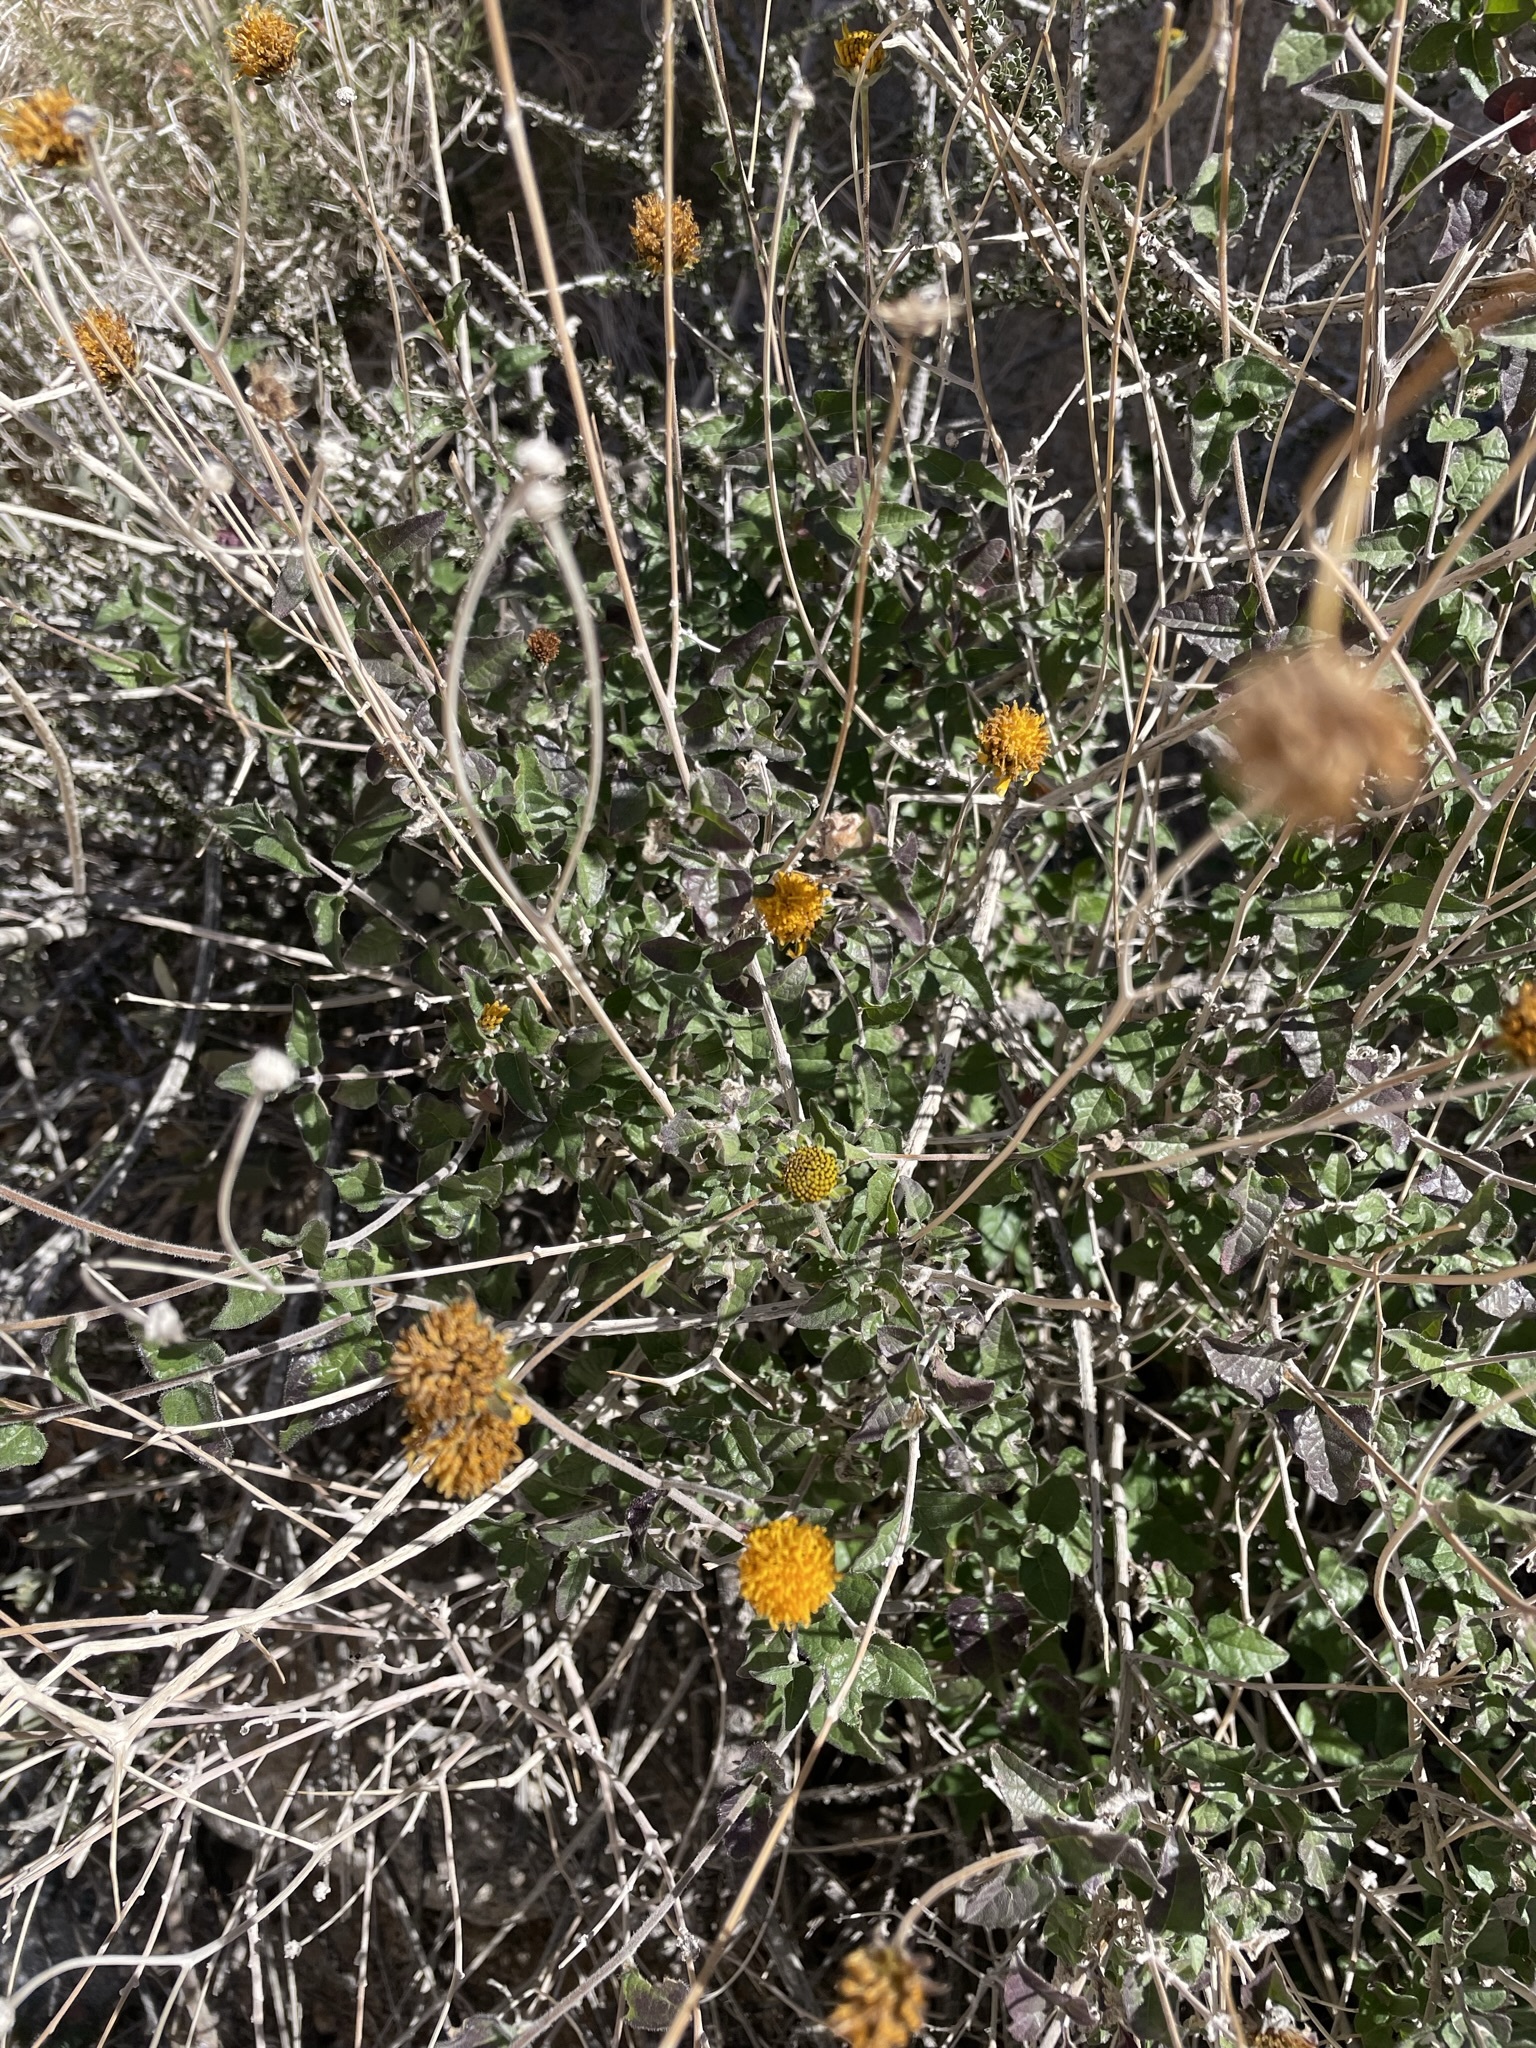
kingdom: Plantae
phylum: Tracheophyta
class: Magnoliopsida
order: Asterales
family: Asteraceae
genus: Bahiopsis
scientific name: Bahiopsis parishii
